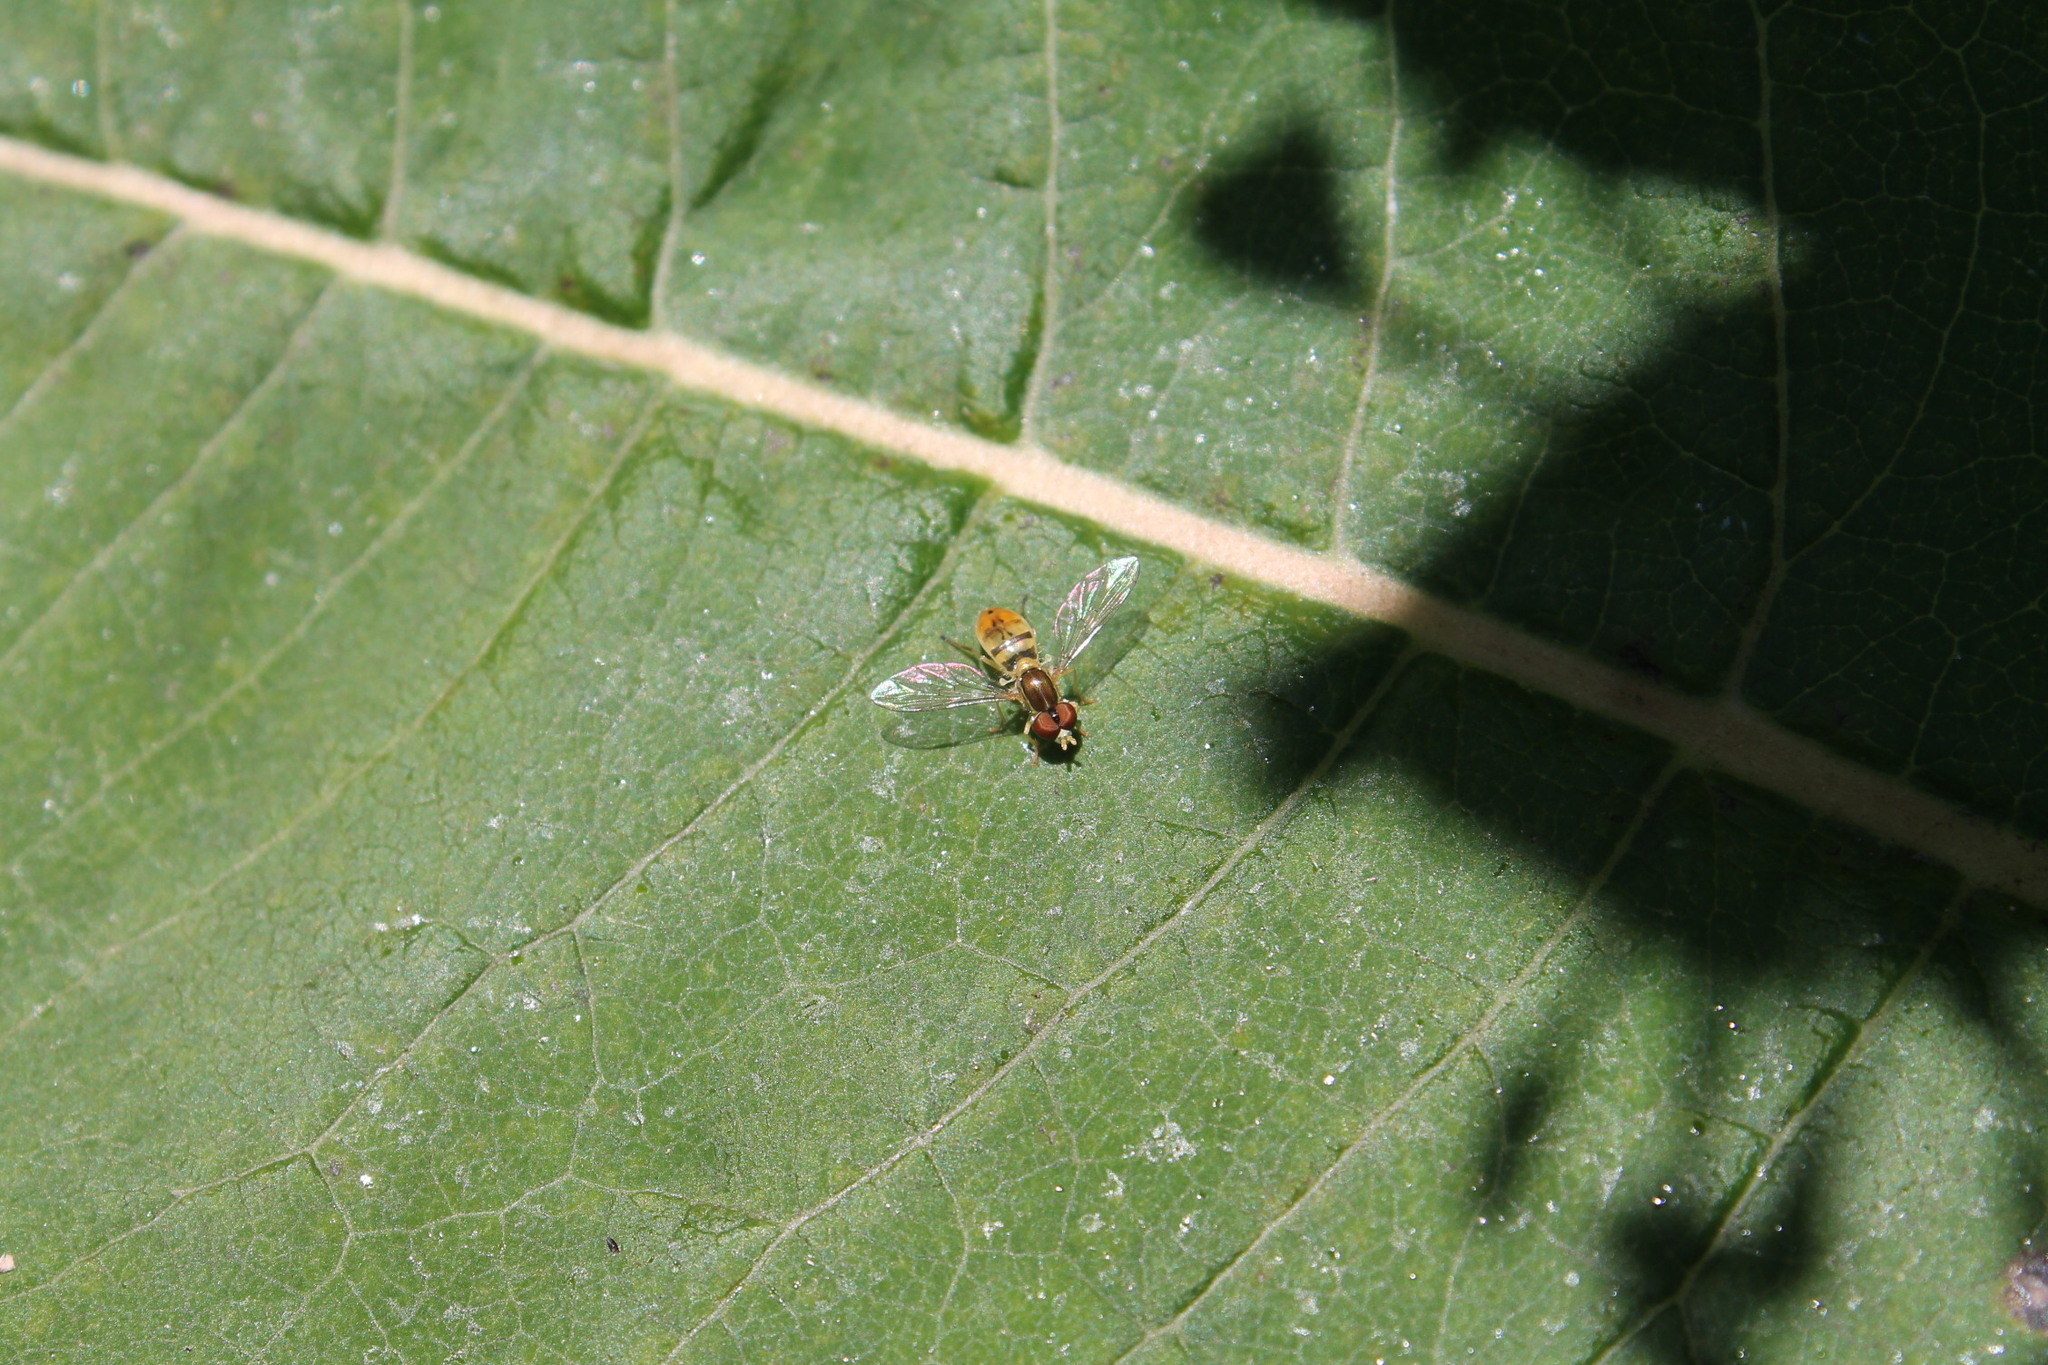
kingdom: Animalia
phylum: Arthropoda
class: Insecta
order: Diptera
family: Syrphidae
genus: Toxomerus
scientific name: Toxomerus marginatus
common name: Syrphid fly
